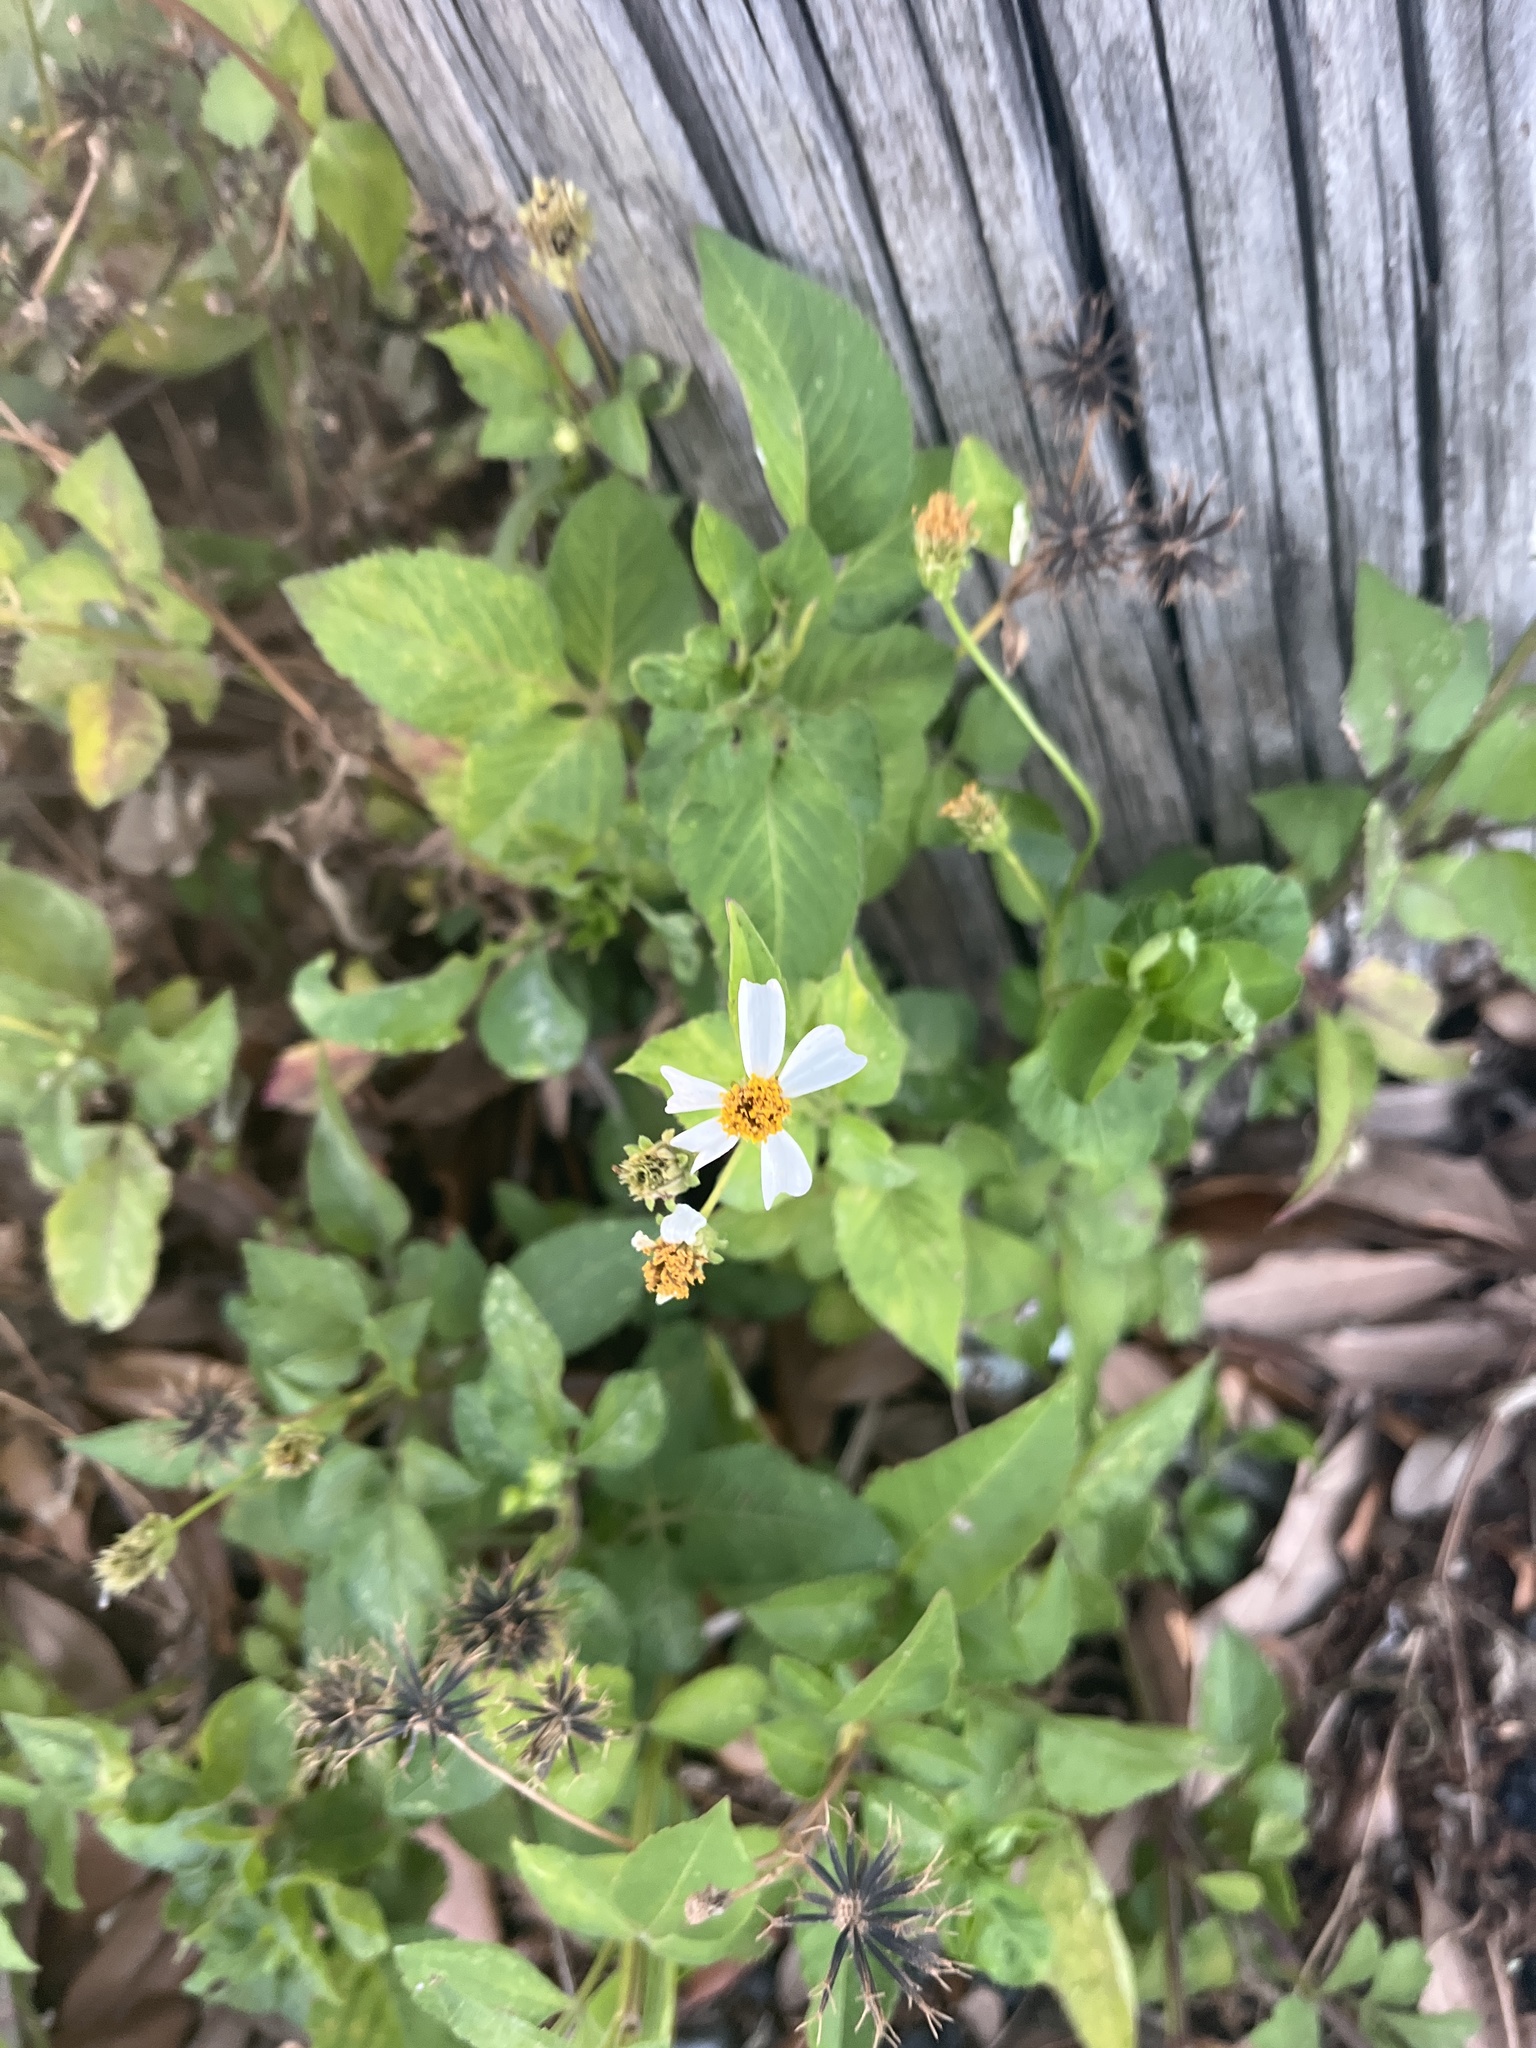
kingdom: Plantae
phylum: Tracheophyta
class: Magnoliopsida
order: Asterales
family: Asteraceae
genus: Bidens
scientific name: Bidens alba
